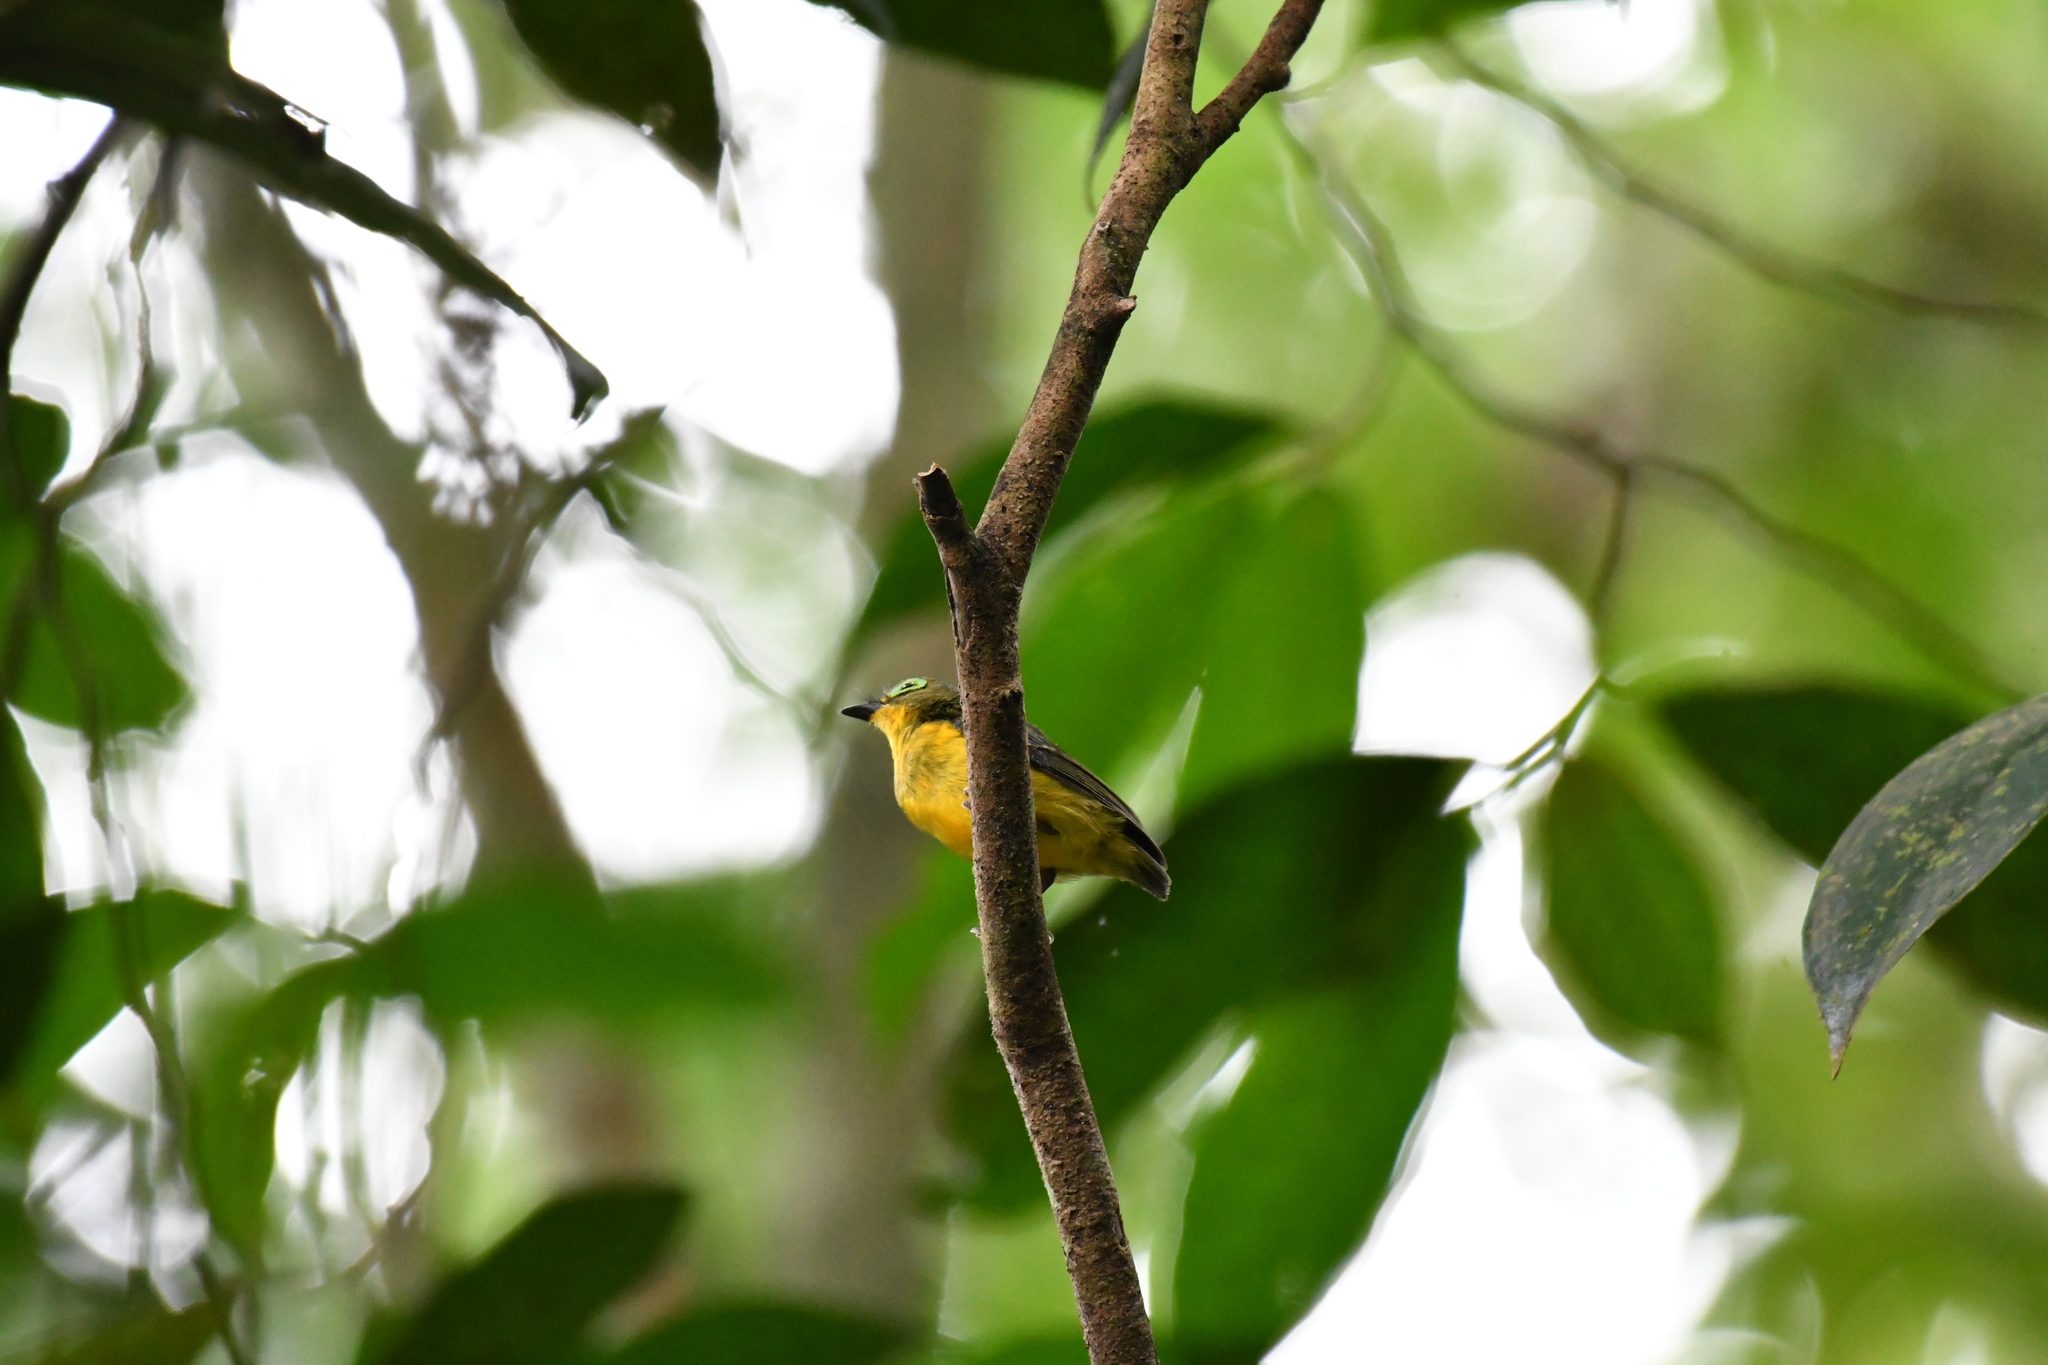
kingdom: Animalia
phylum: Chordata
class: Aves
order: Passeriformes
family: Platysteiridae
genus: Platysteira
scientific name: Platysteira concreta
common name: Yellow-bellied wattle-eye
